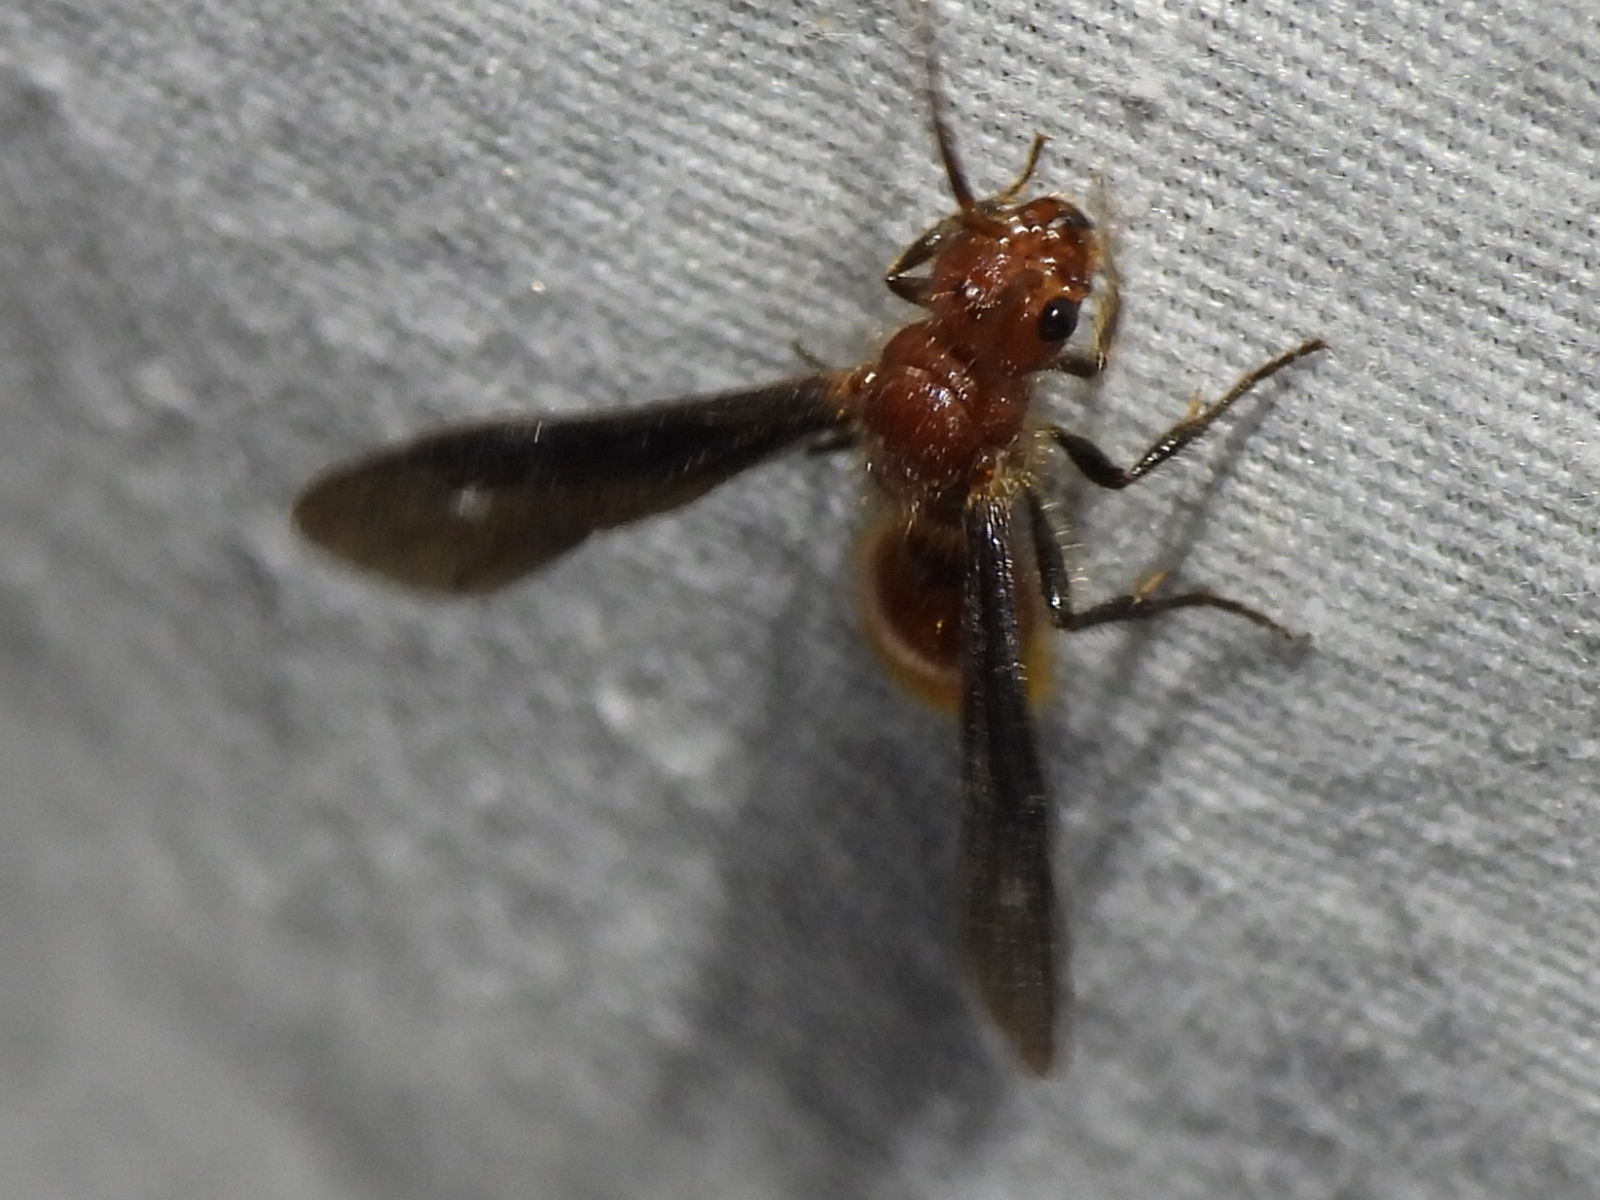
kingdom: Animalia
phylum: Arthropoda
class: Insecta
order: Hymenoptera
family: Mutillidae
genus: Sphaeropthalma
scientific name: Sphaeropthalma
